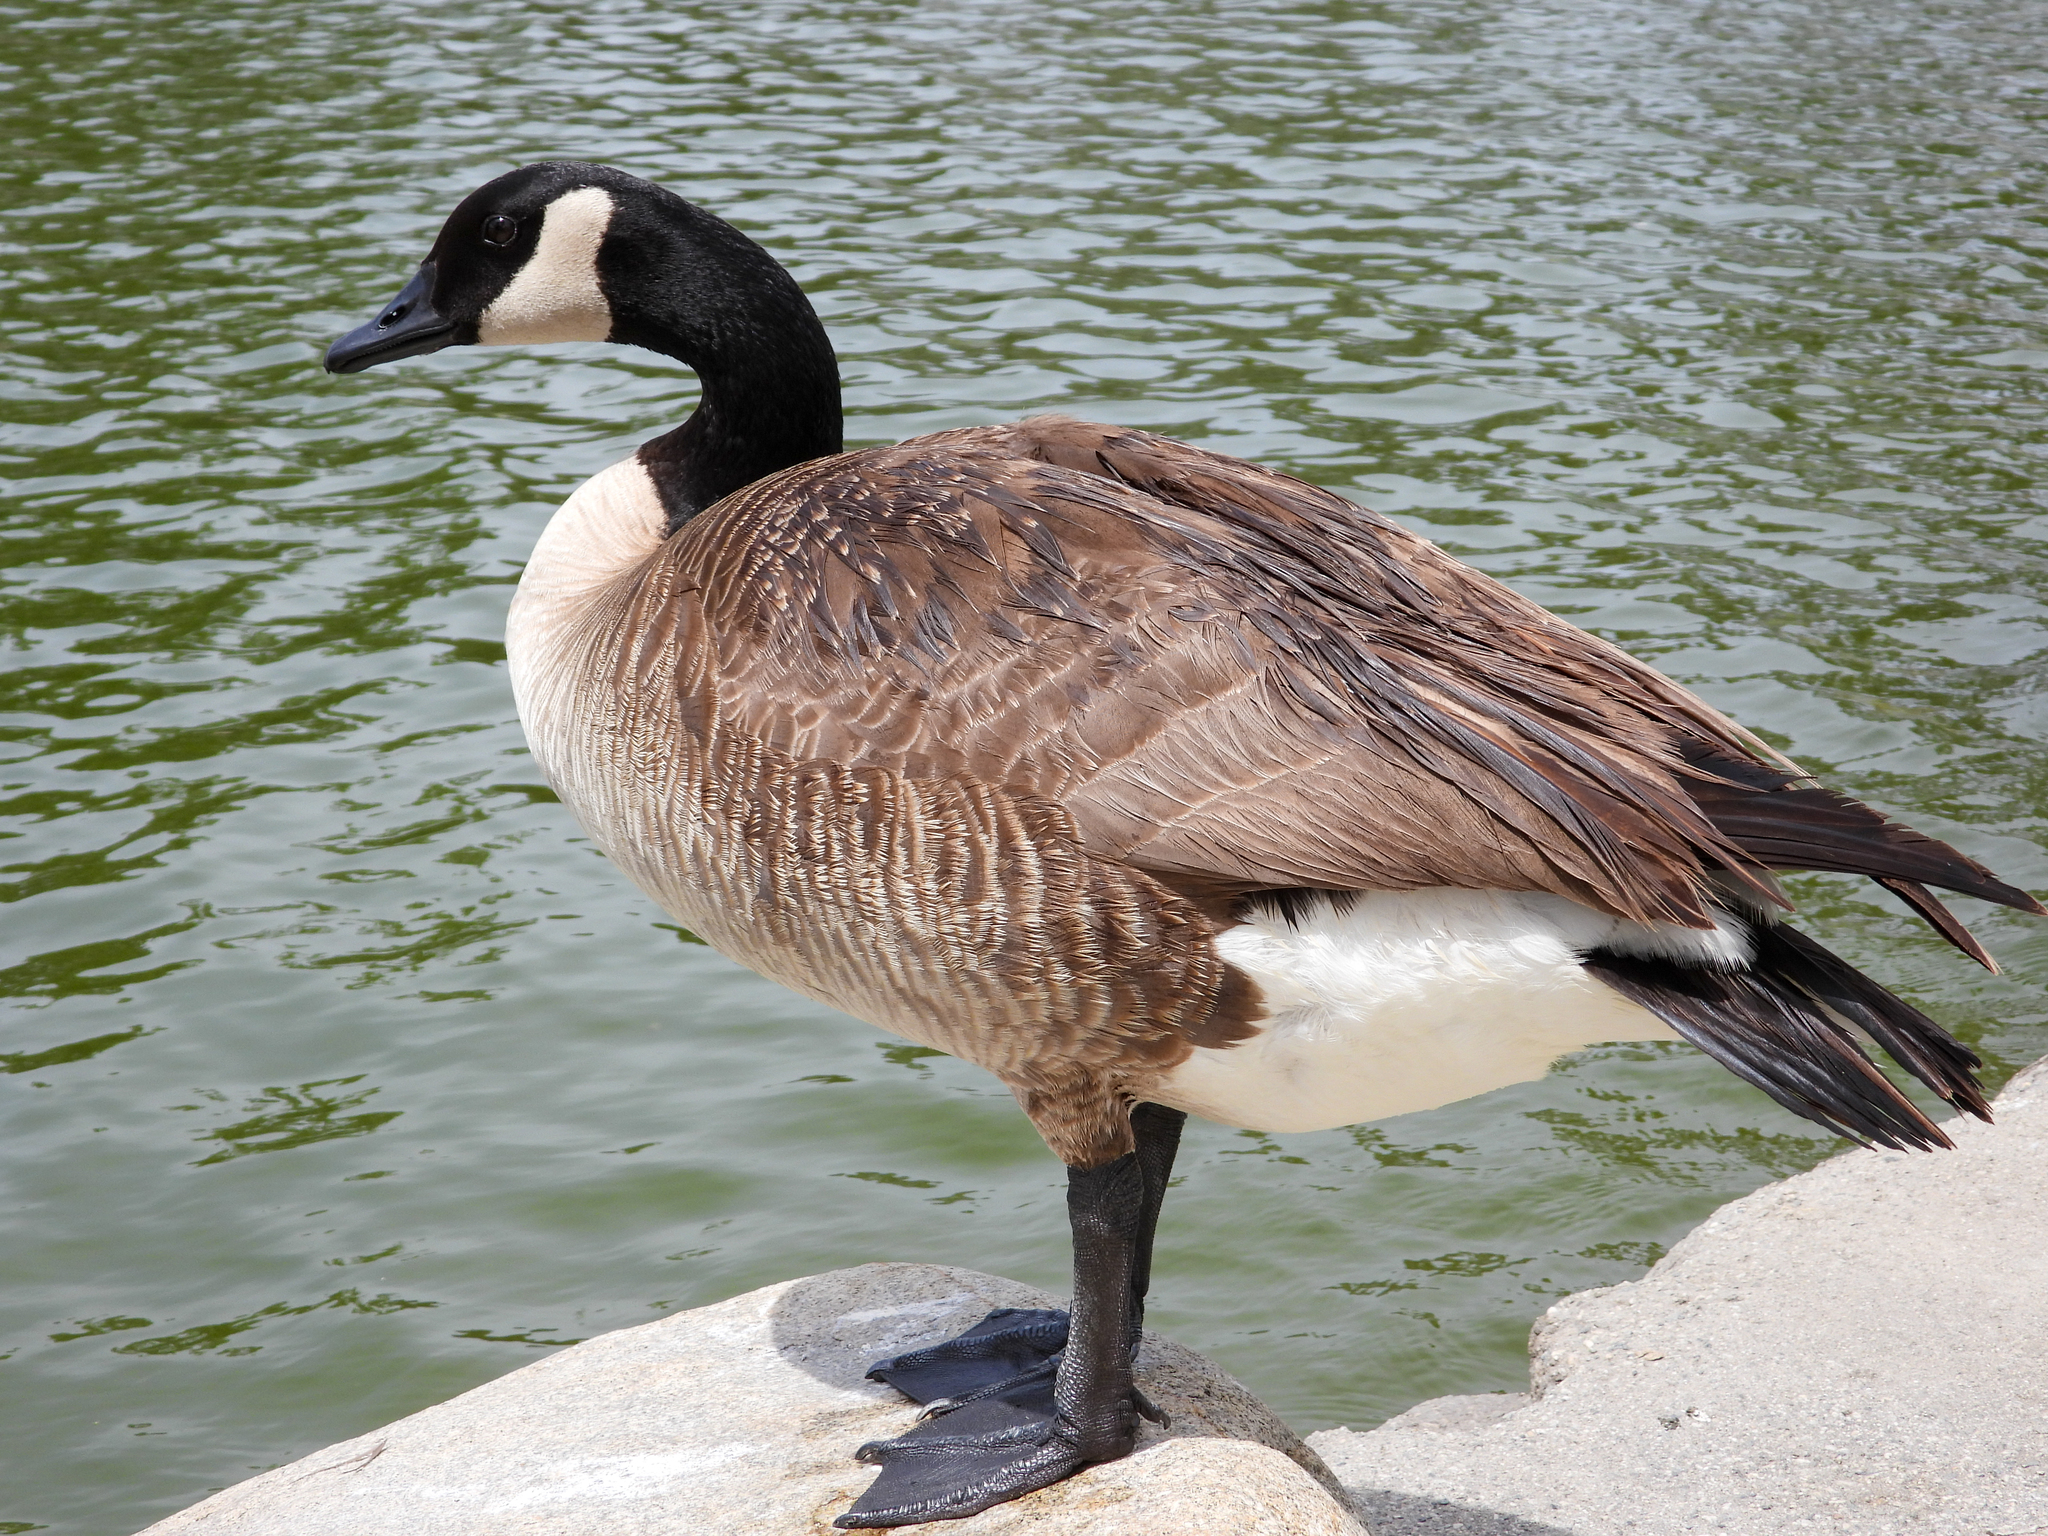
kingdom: Animalia
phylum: Chordata
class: Aves
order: Anseriformes
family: Anatidae
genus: Branta
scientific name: Branta canadensis
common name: Canada goose
